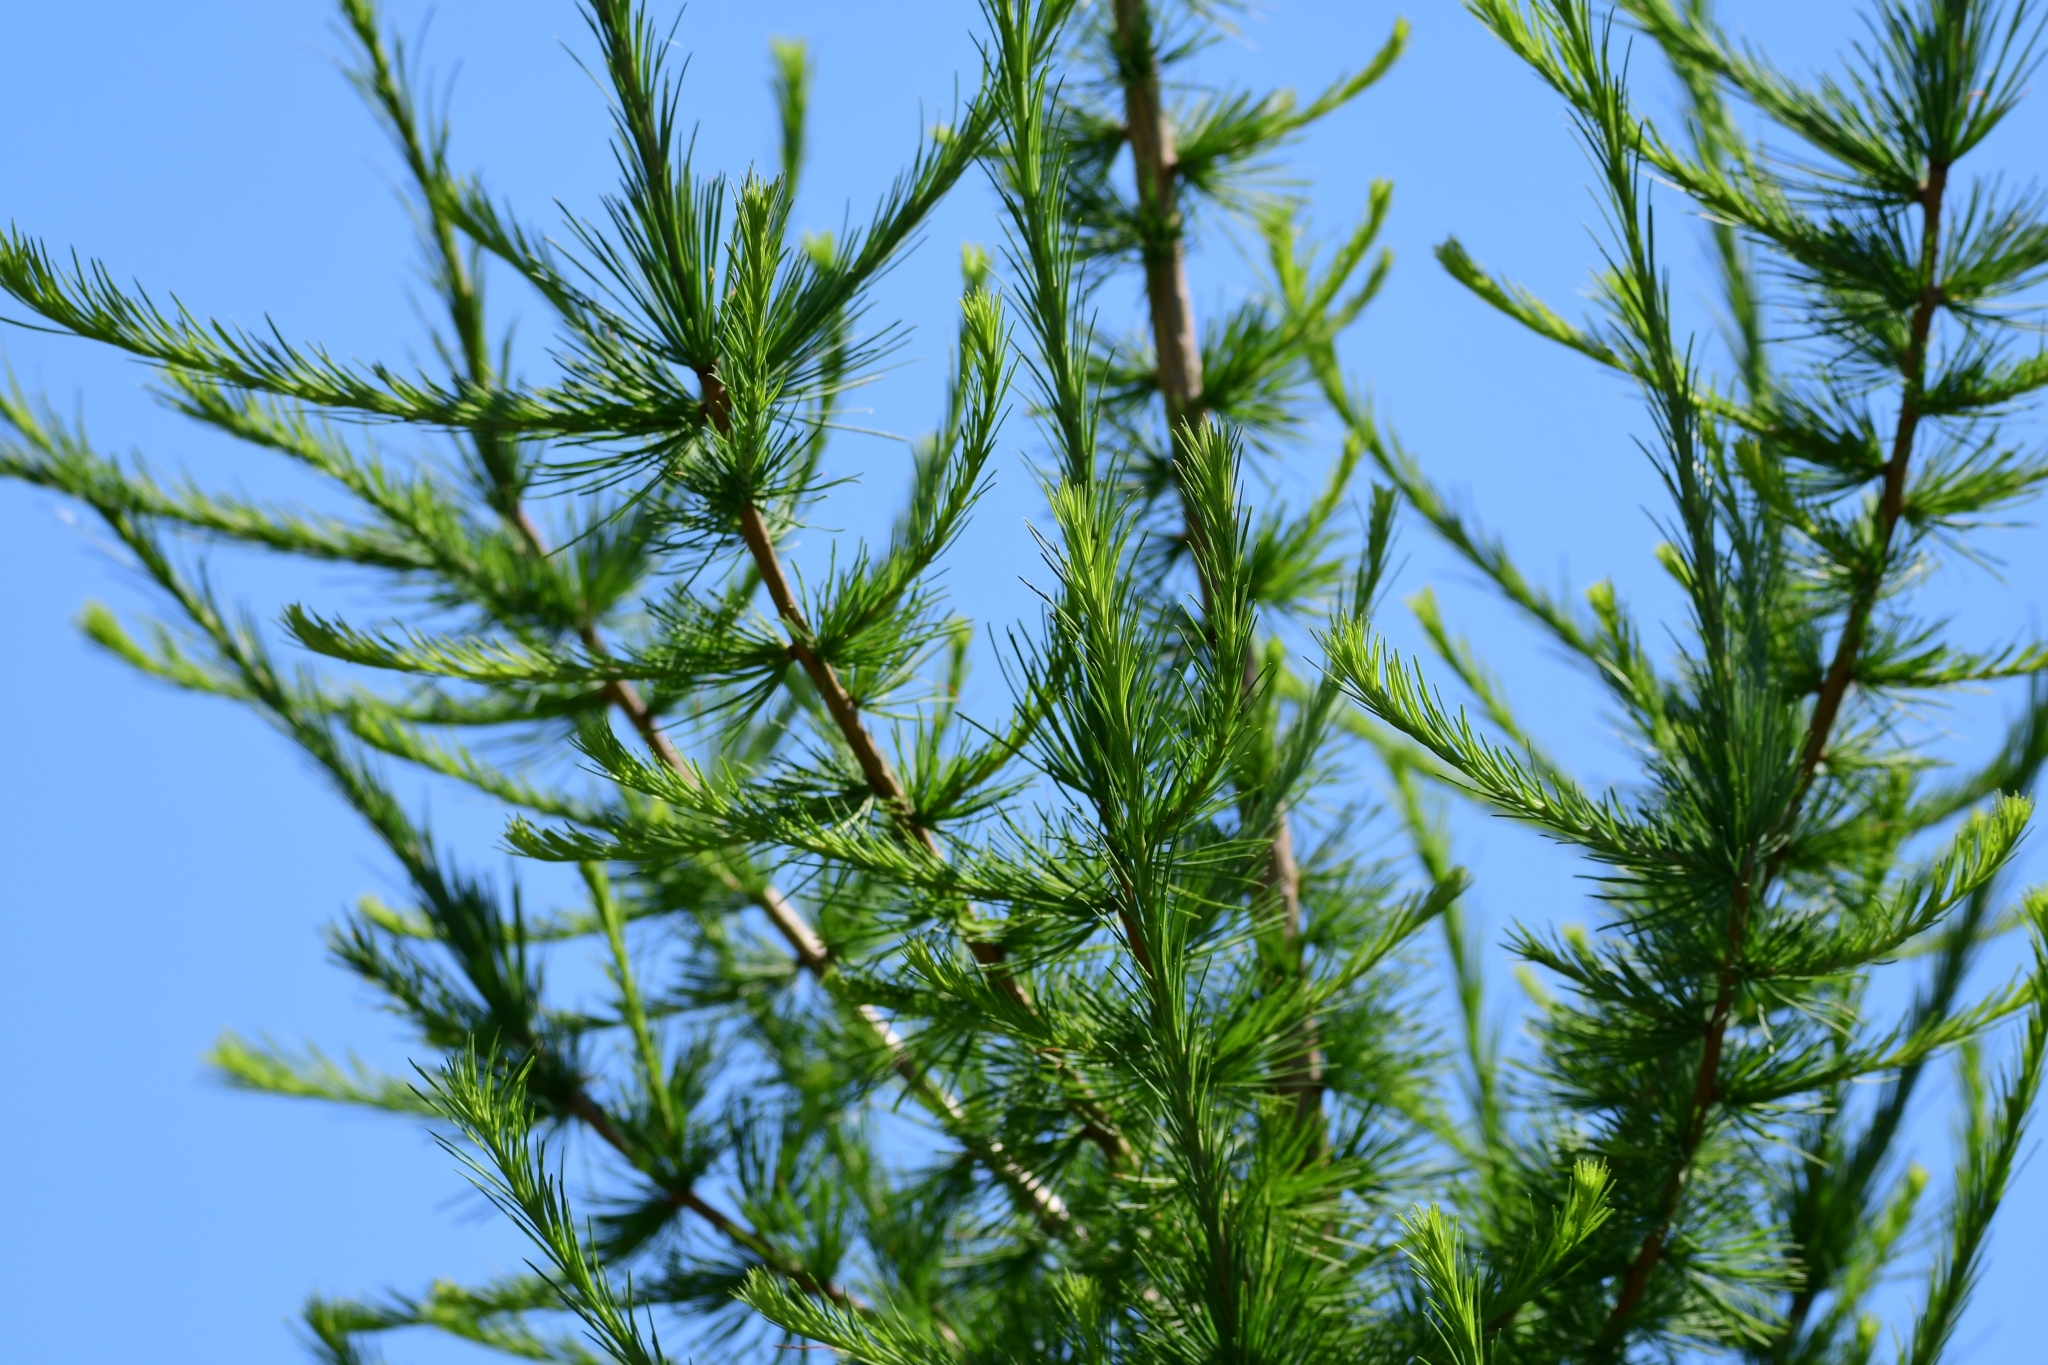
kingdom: Plantae
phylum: Tracheophyta
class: Pinopsida
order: Pinales
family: Pinaceae
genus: Larix
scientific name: Larix laricina
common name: American larch
